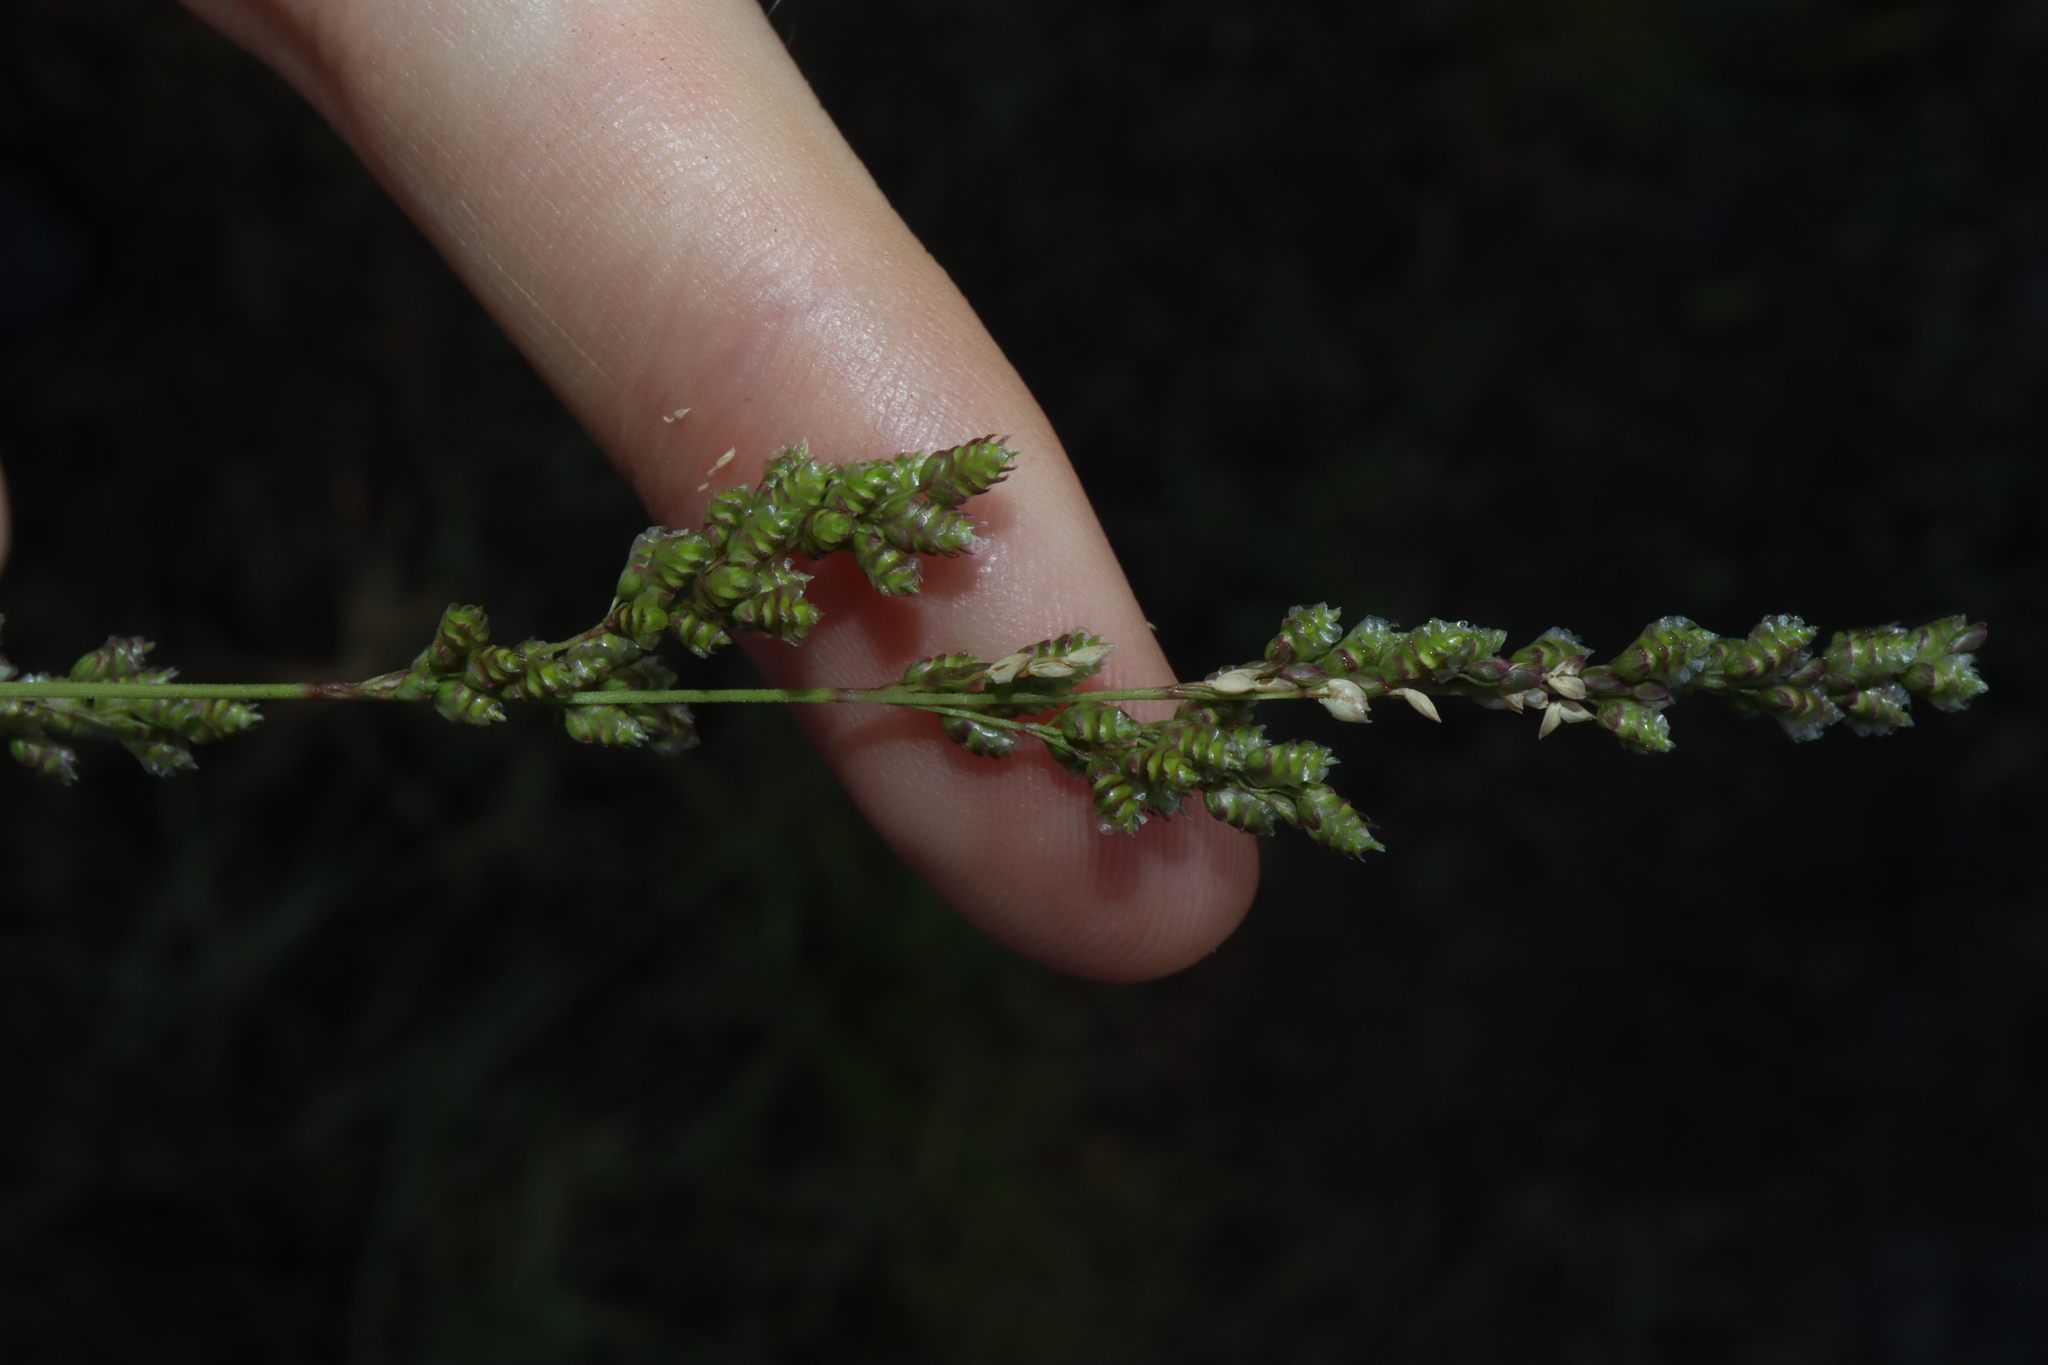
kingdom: Plantae
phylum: Tracheophyta
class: Liliopsida
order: Poales
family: Poaceae
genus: Chascolytrum
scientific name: Chascolytrum subaristatum
